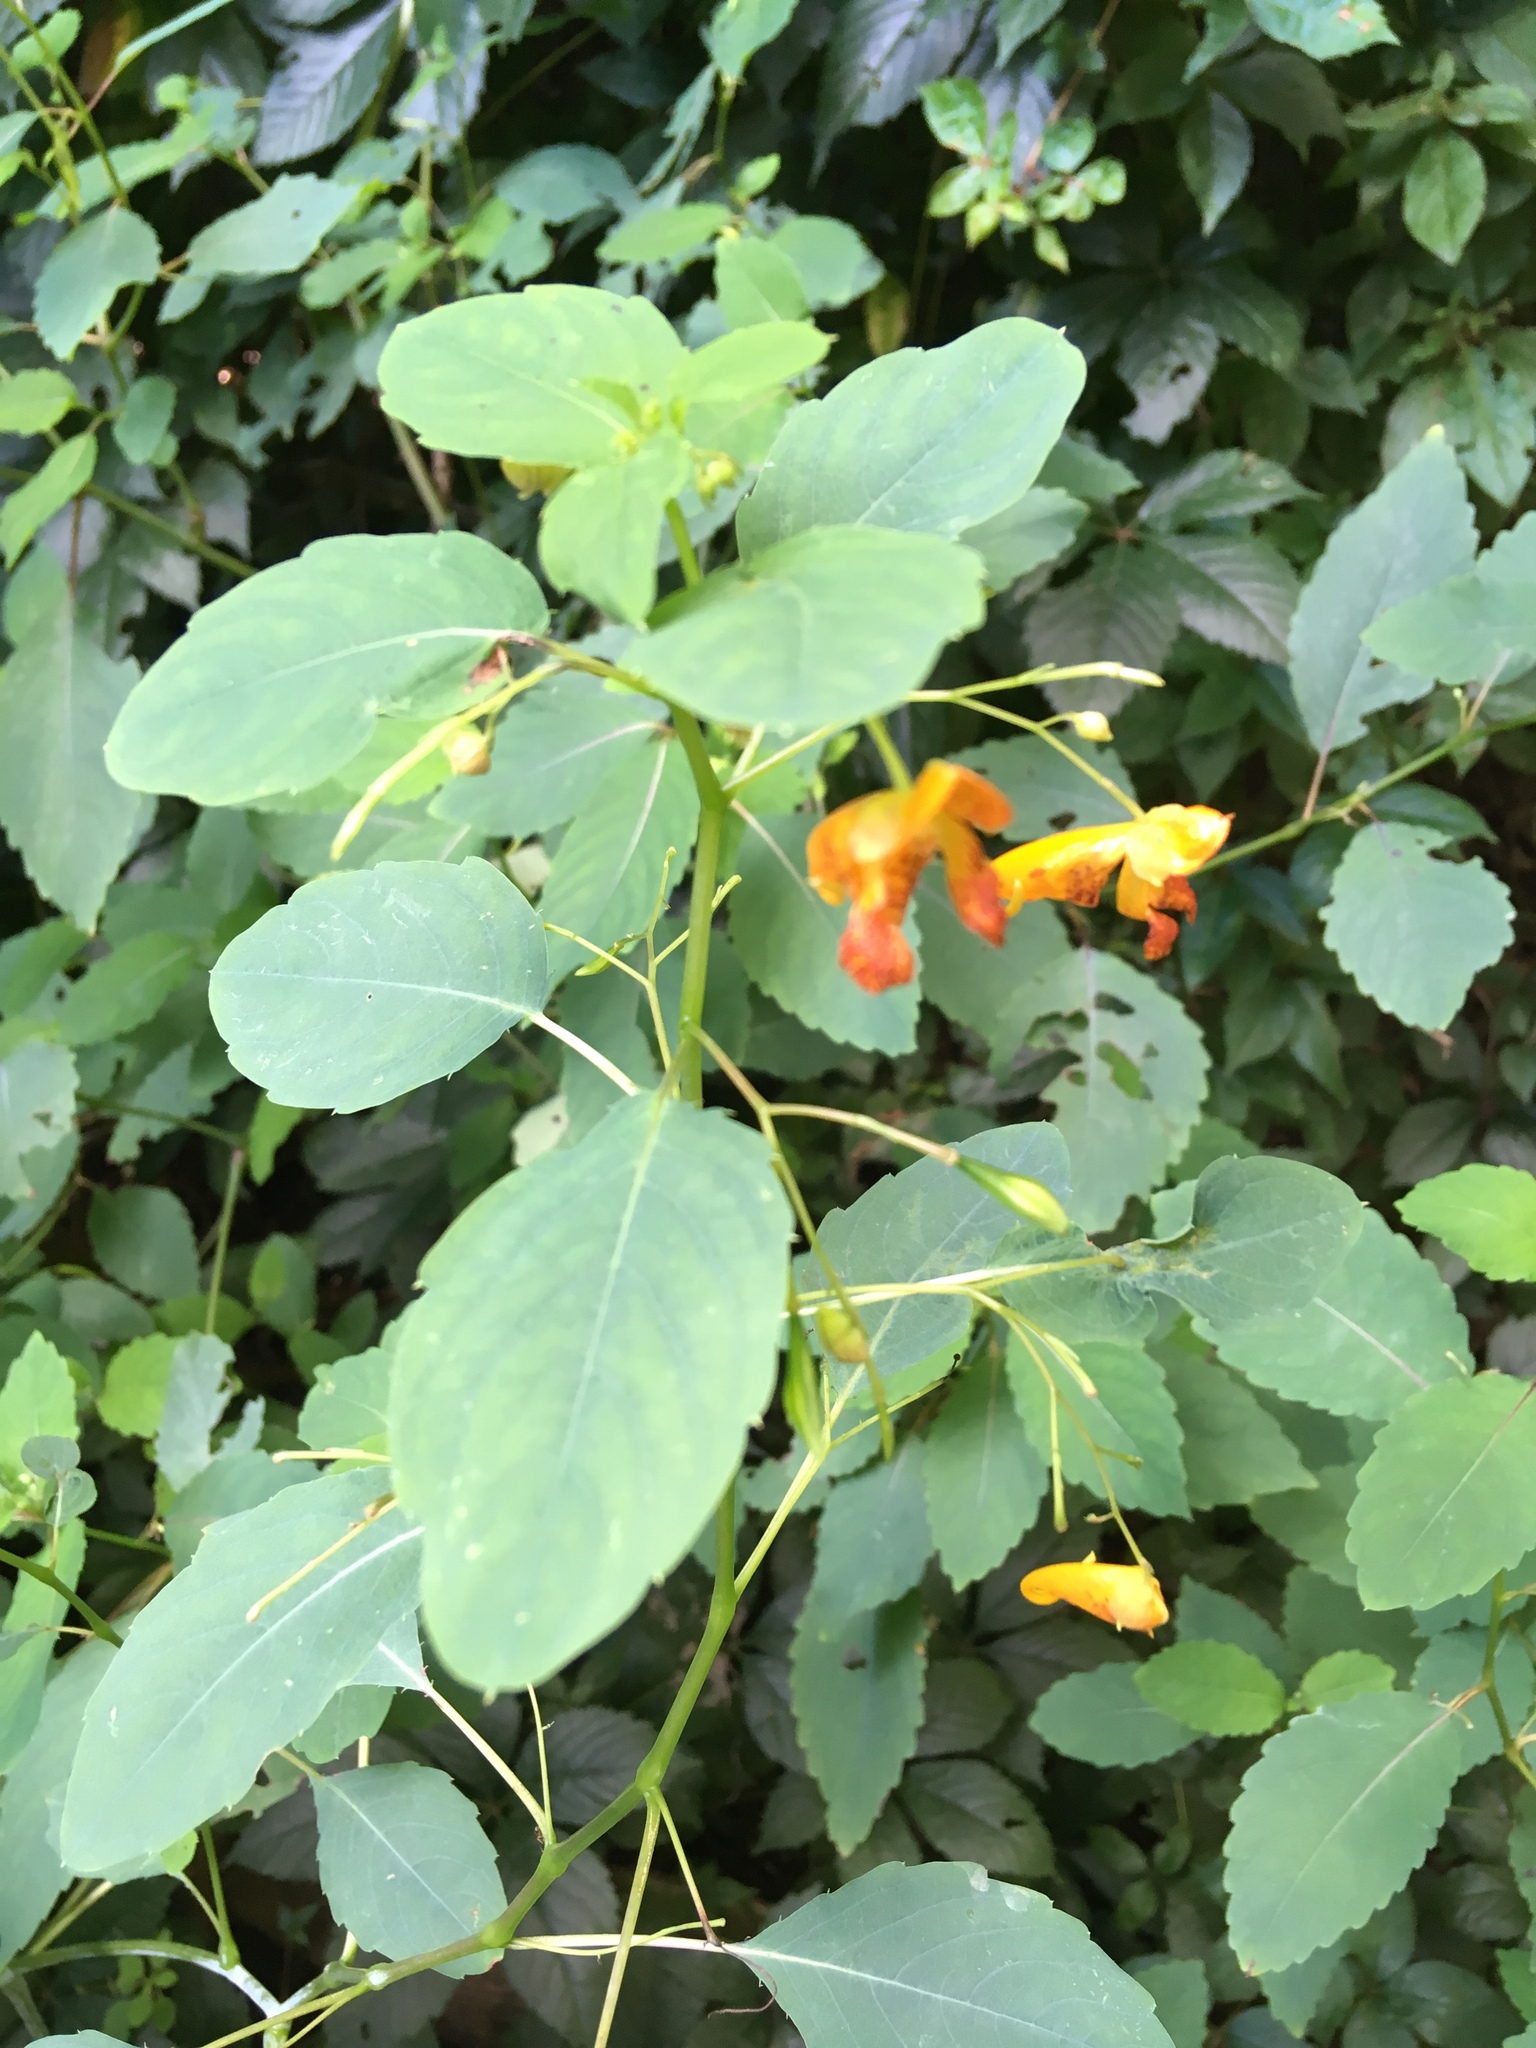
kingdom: Plantae
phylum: Tracheophyta
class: Magnoliopsida
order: Ericales
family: Balsaminaceae
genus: Impatiens
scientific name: Impatiens capensis
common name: Orange balsam
